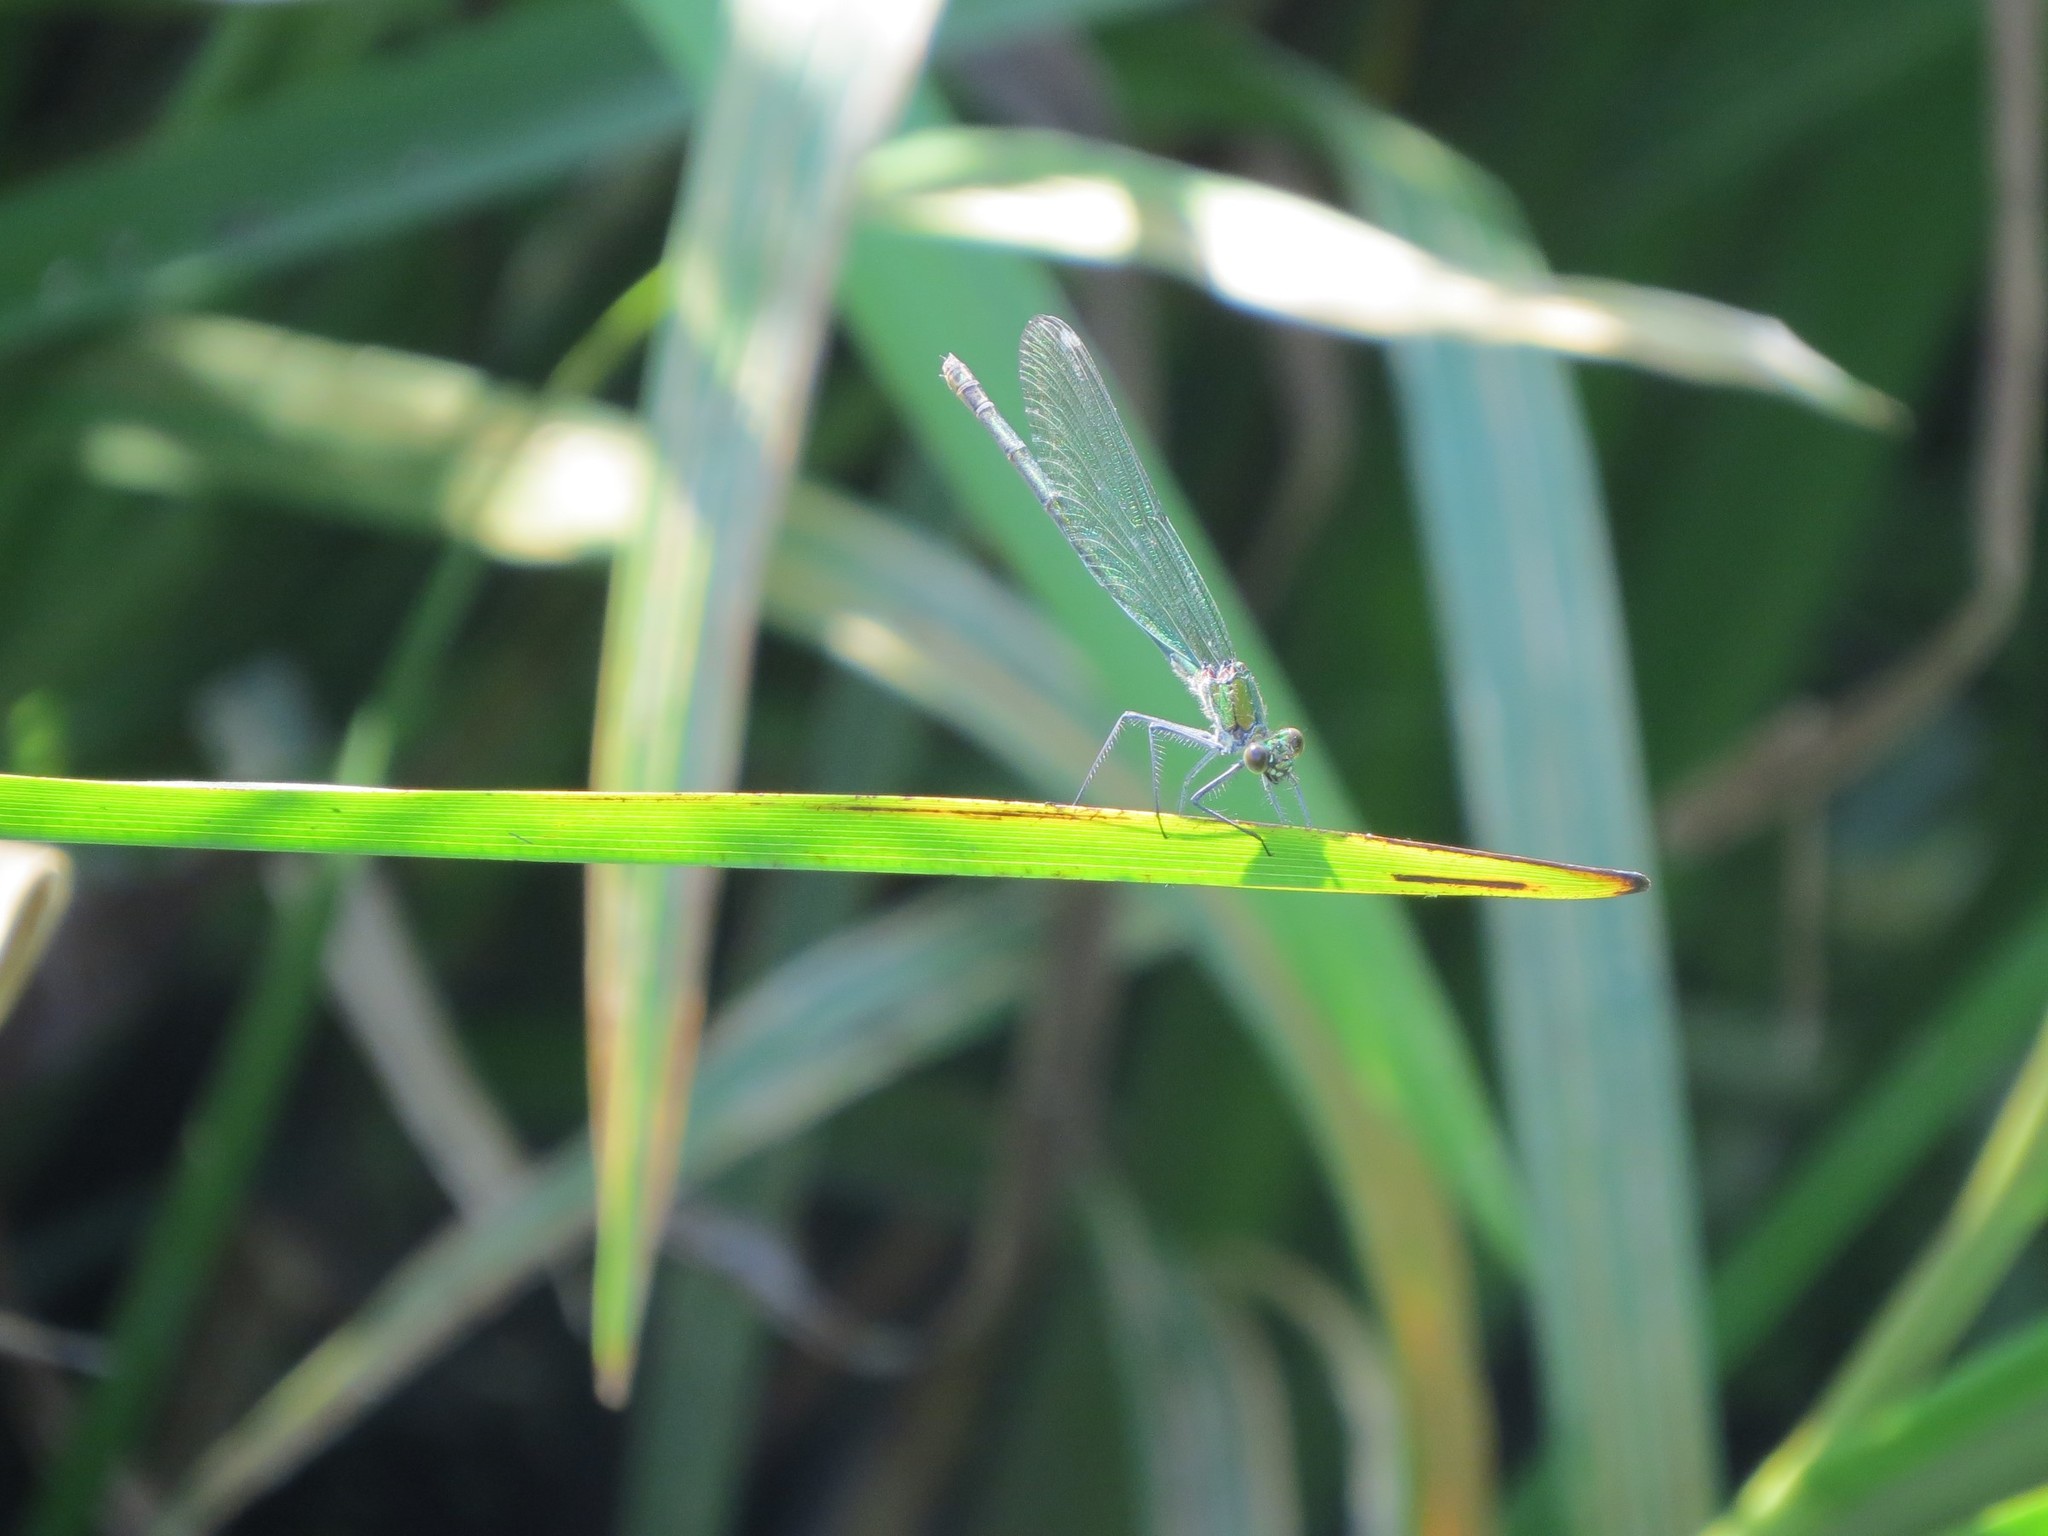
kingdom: Animalia
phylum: Arthropoda
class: Insecta
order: Odonata
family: Calopterygidae
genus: Calopteryx
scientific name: Calopteryx splendens
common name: Banded demoiselle
